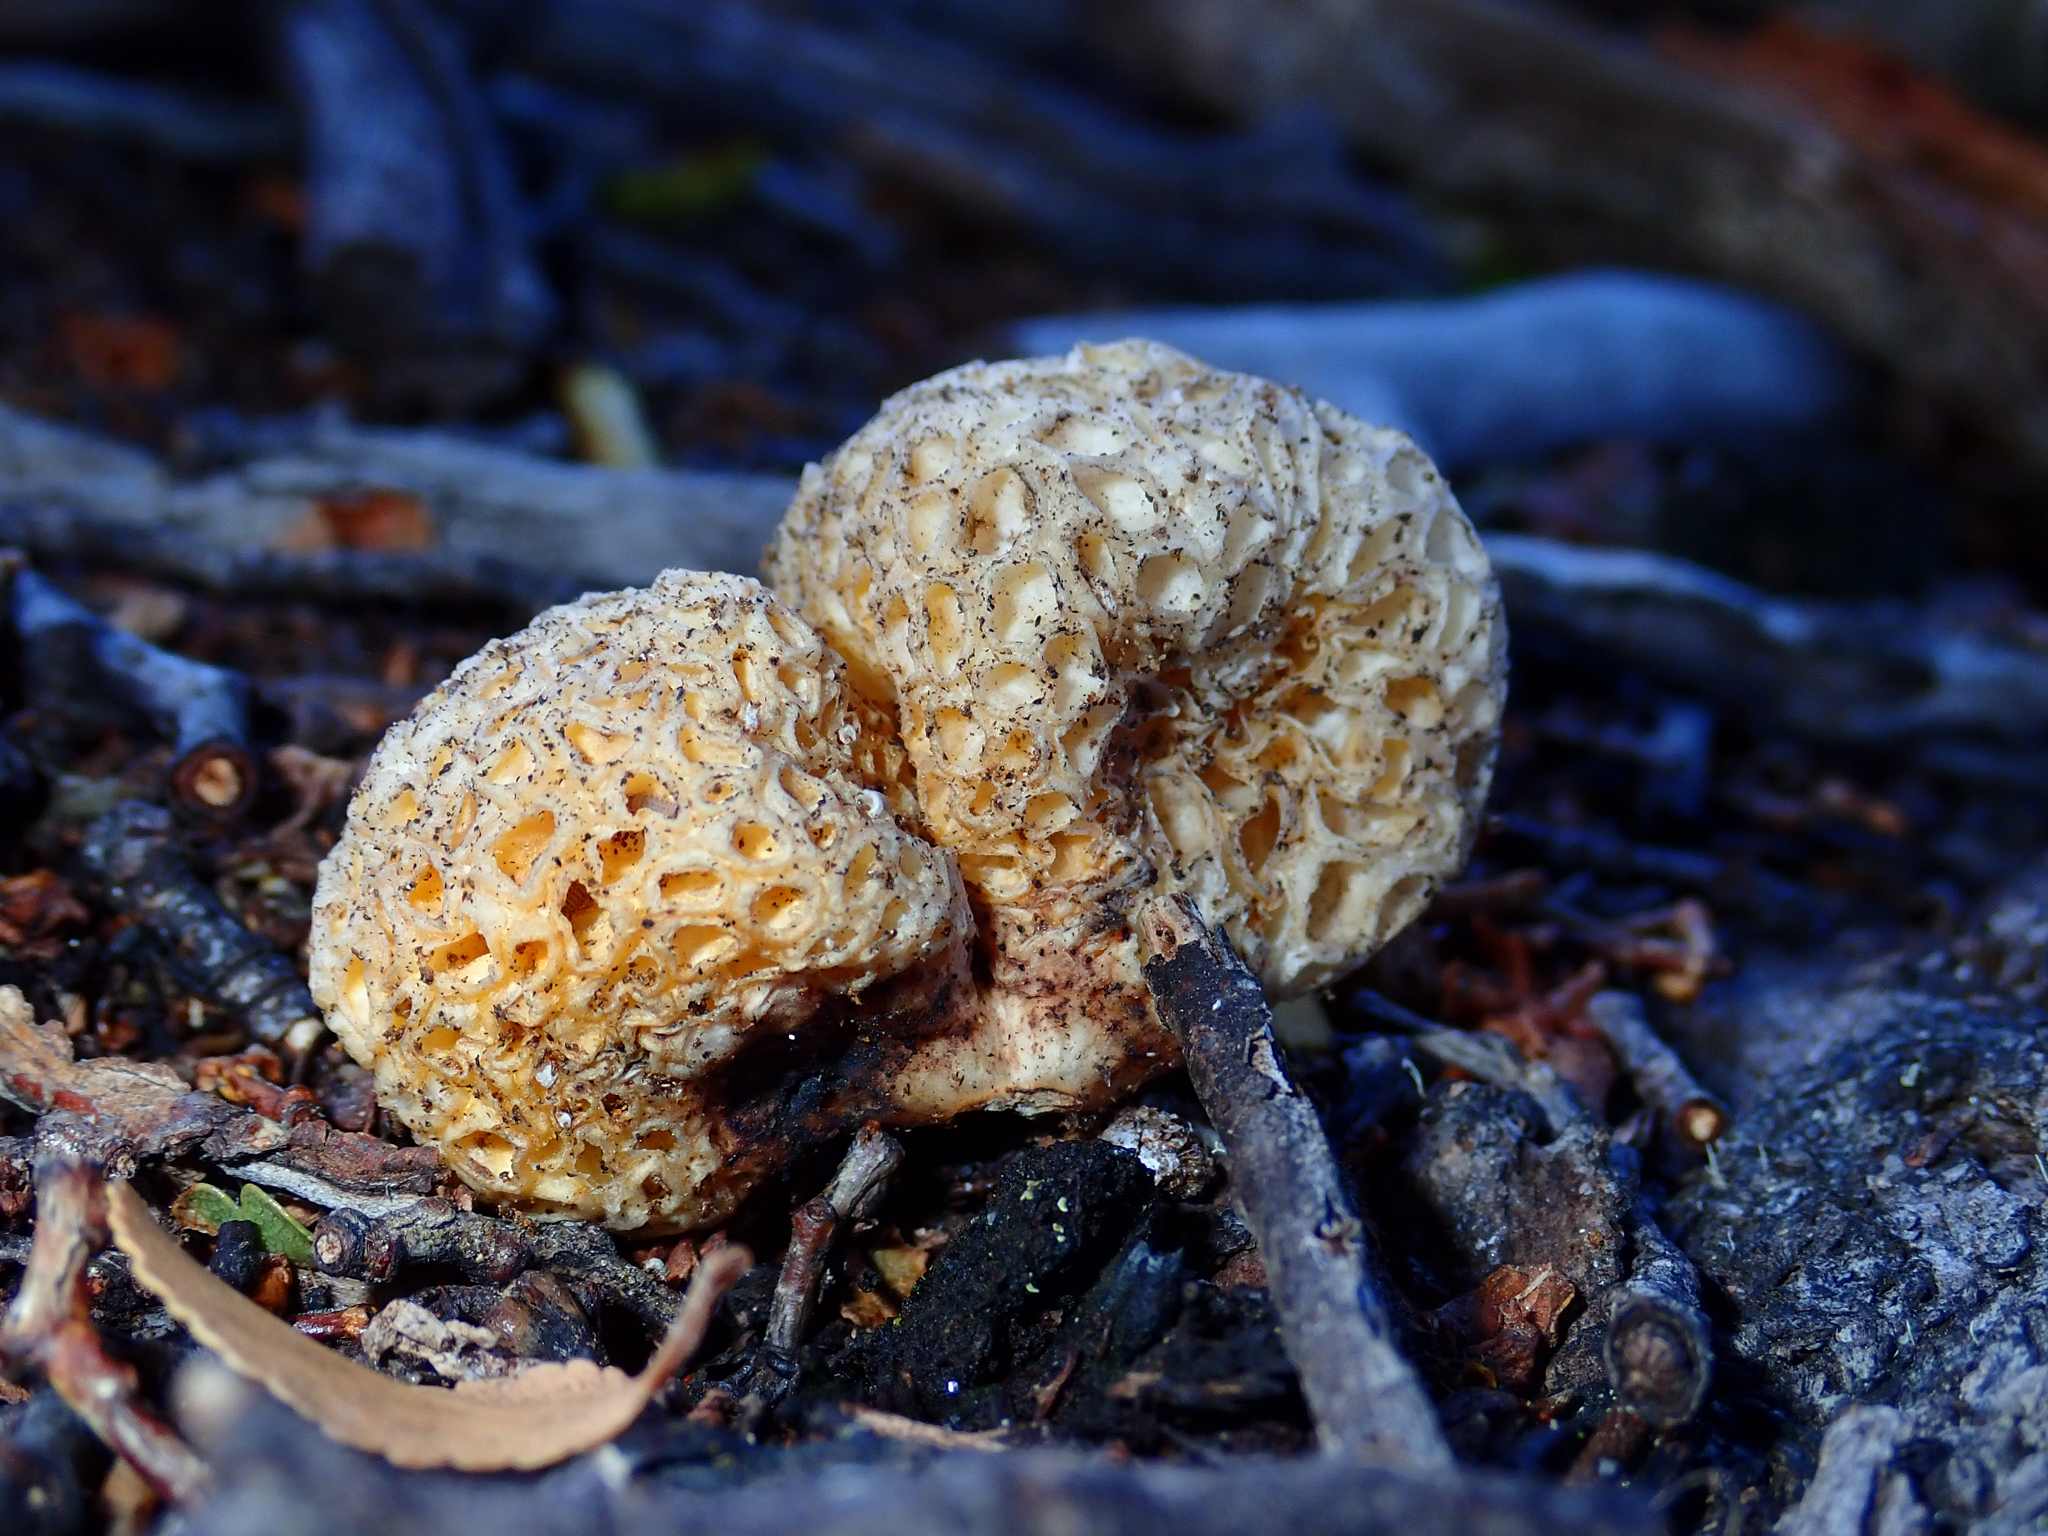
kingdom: Fungi
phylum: Ascomycota
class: Leotiomycetes
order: Cyttariales
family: Cyttariaceae
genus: Cyttaria
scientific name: Cyttaria hariotii
